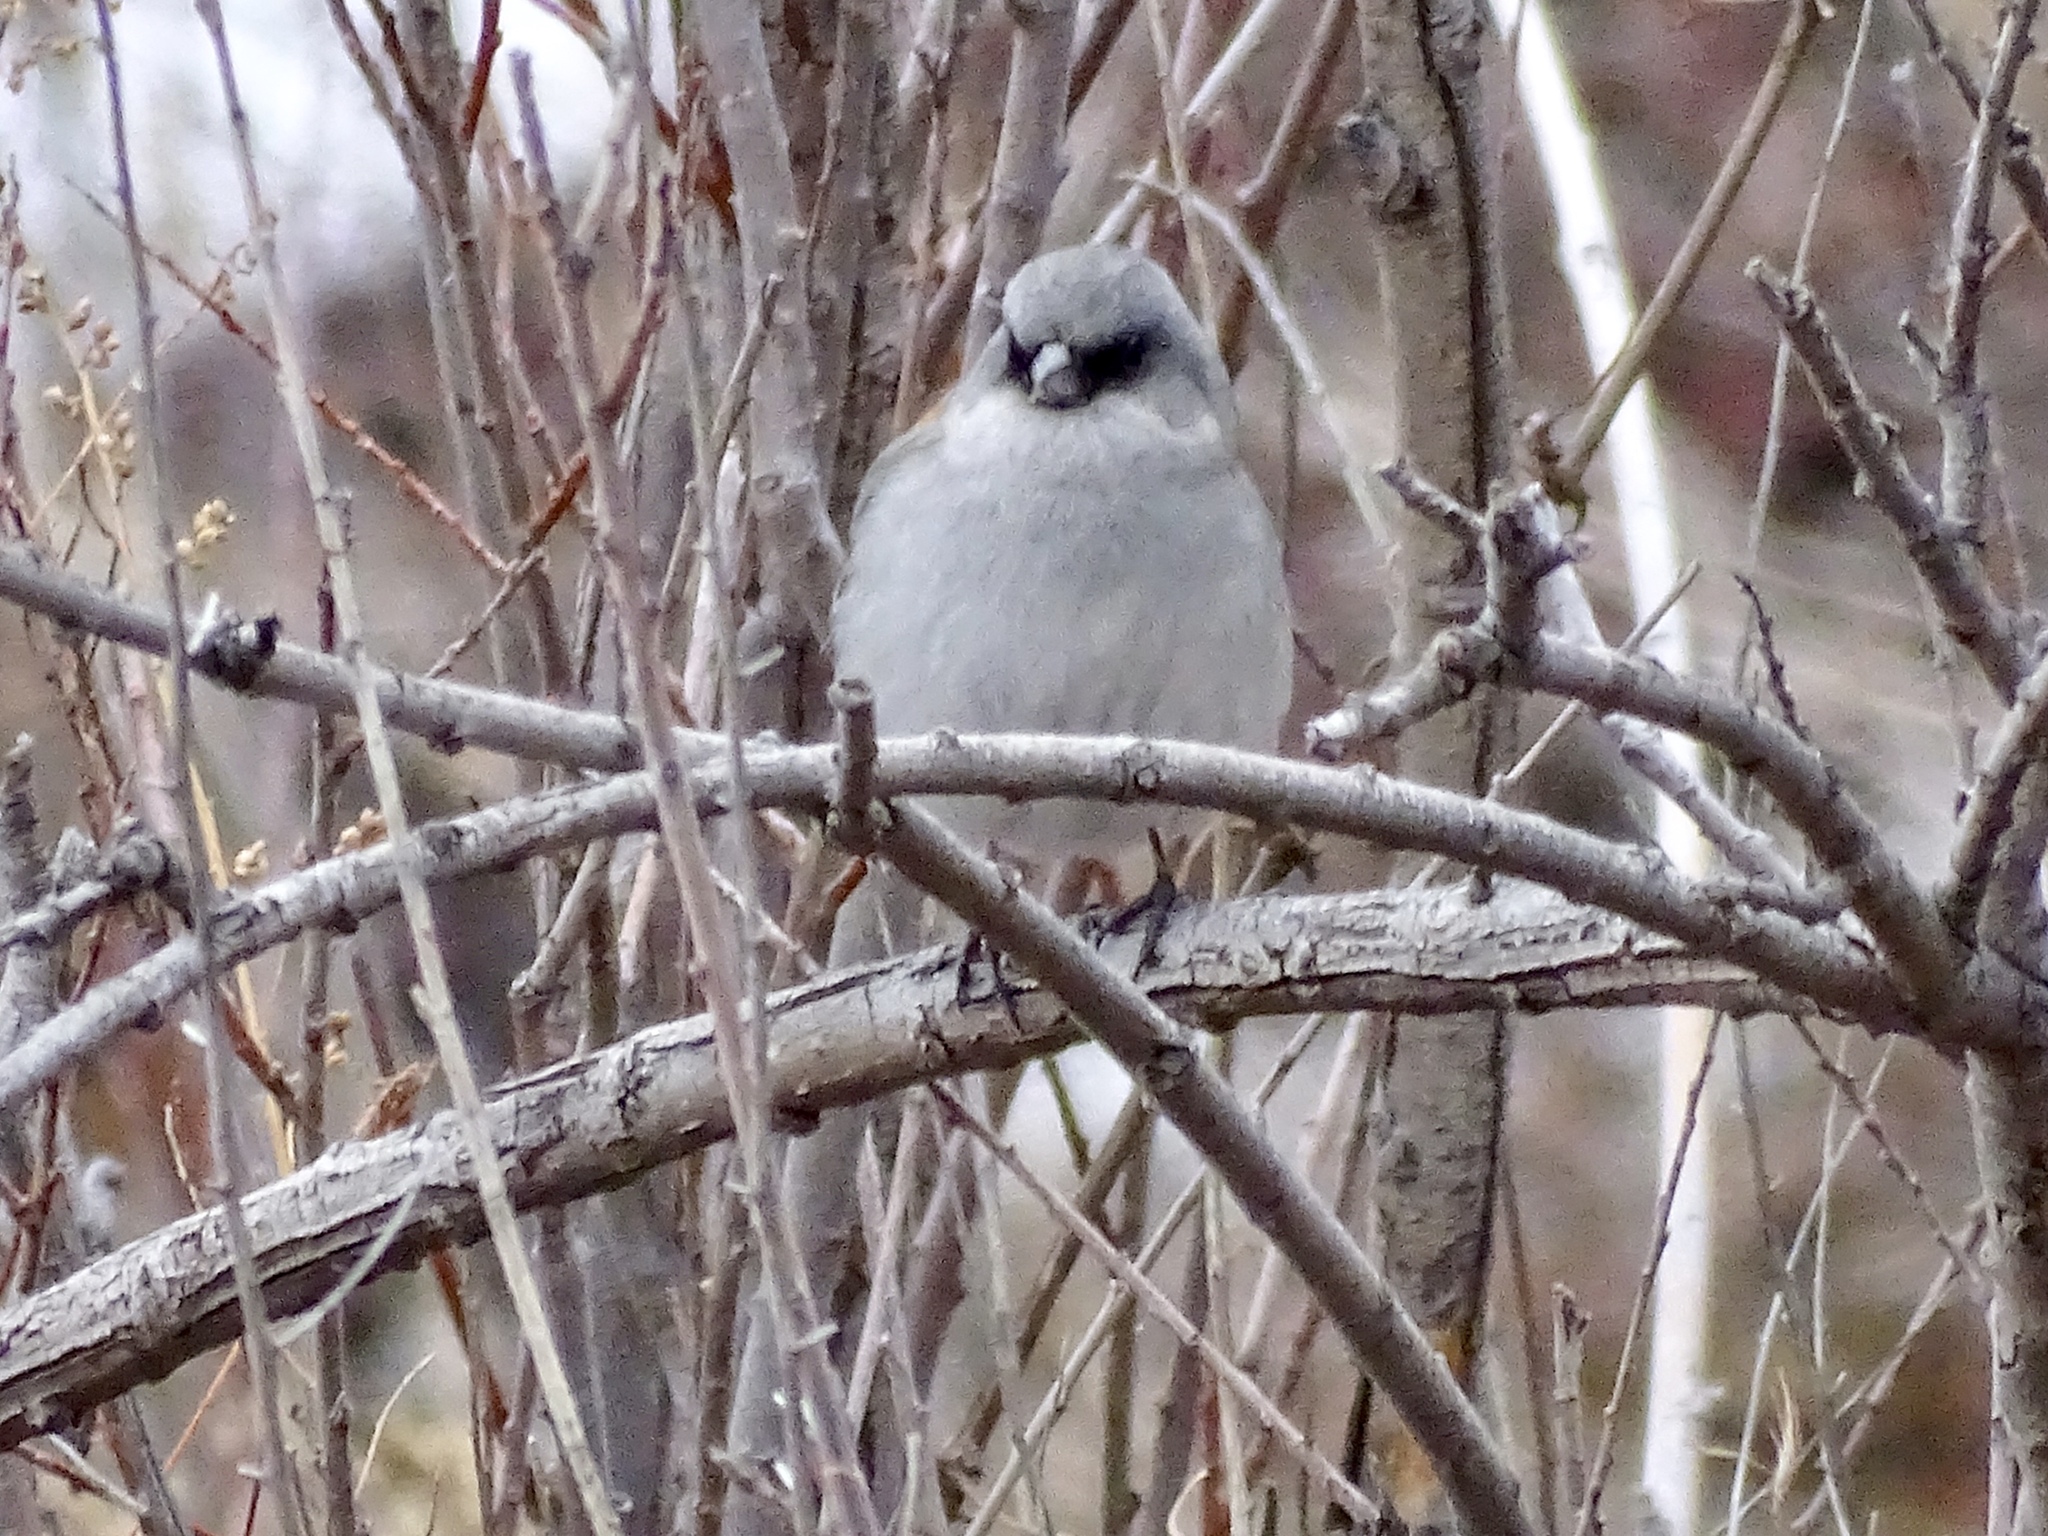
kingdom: Animalia
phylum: Chordata
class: Aves
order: Passeriformes
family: Passerellidae
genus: Junco
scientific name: Junco hyemalis
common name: Dark-eyed junco
